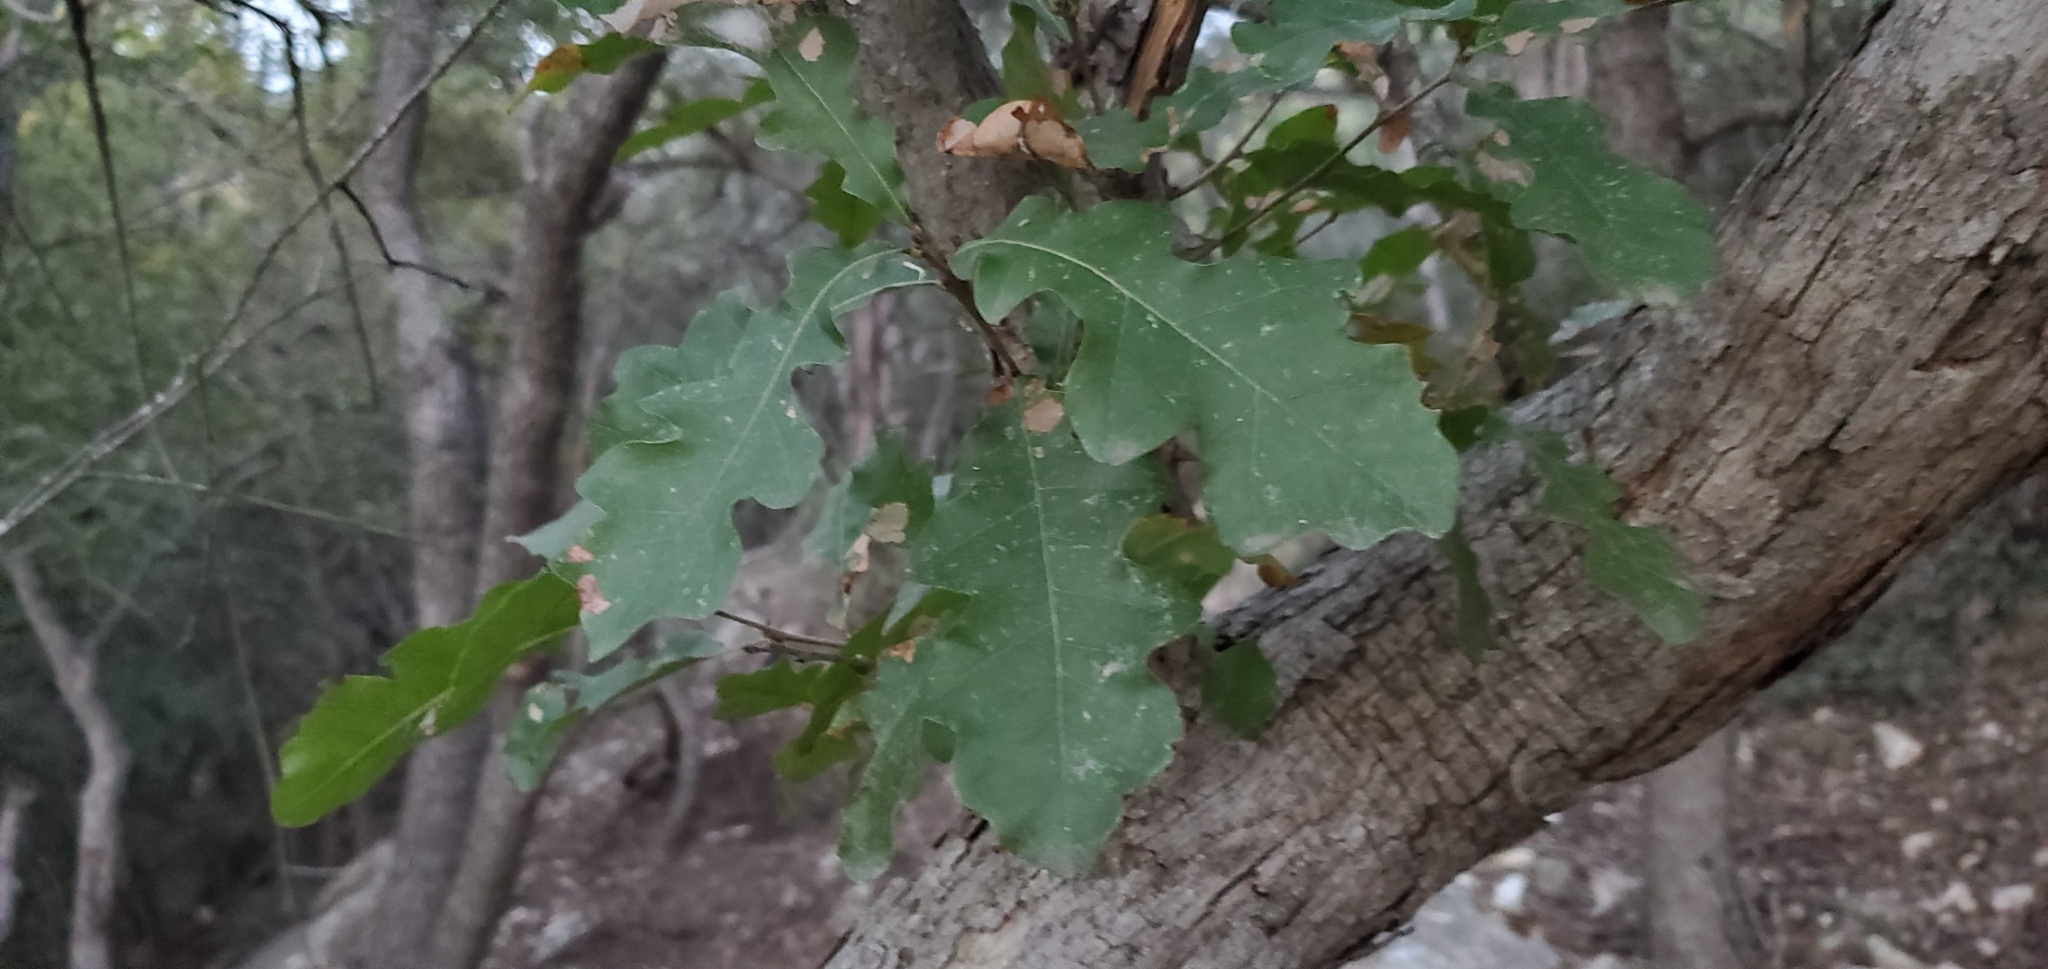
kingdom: Plantae
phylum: Tracheophyta
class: Magnoliopsida
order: Fagales
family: Fagaceae
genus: Quercus
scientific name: Quercus sinuata
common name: Durand oak
